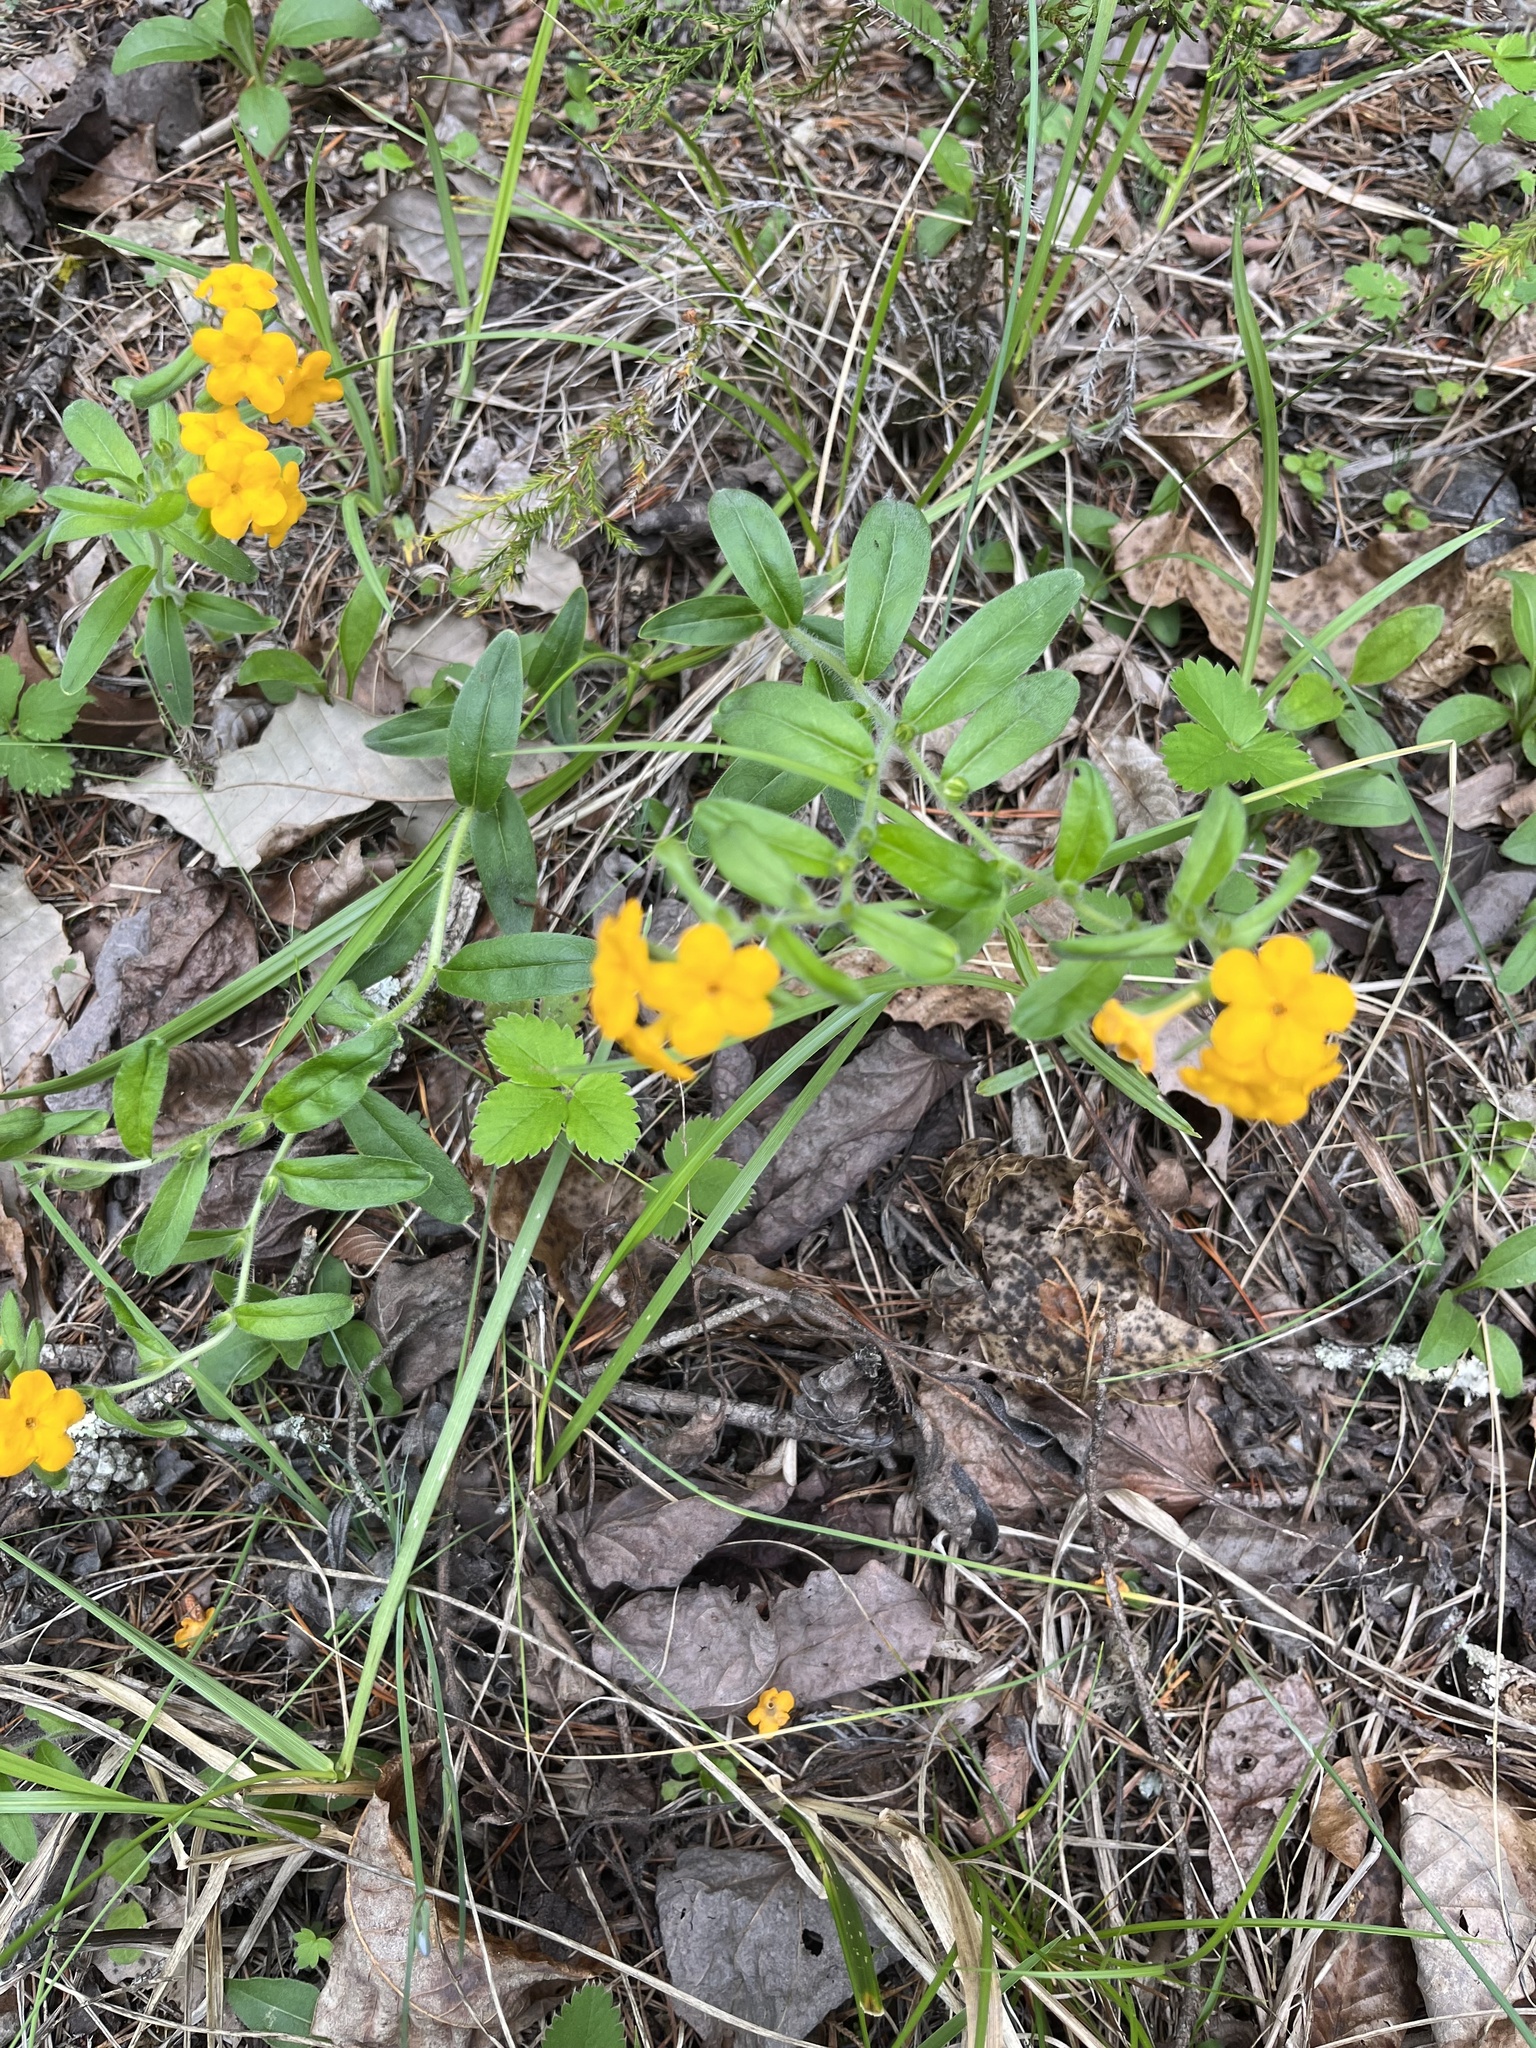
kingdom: Plantae
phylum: Tracheophyta
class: Magnoliopsida
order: Boraginales
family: Boraginaceae
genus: Lithospermum
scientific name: Lithospermum canescens
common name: Hoary puccoon
